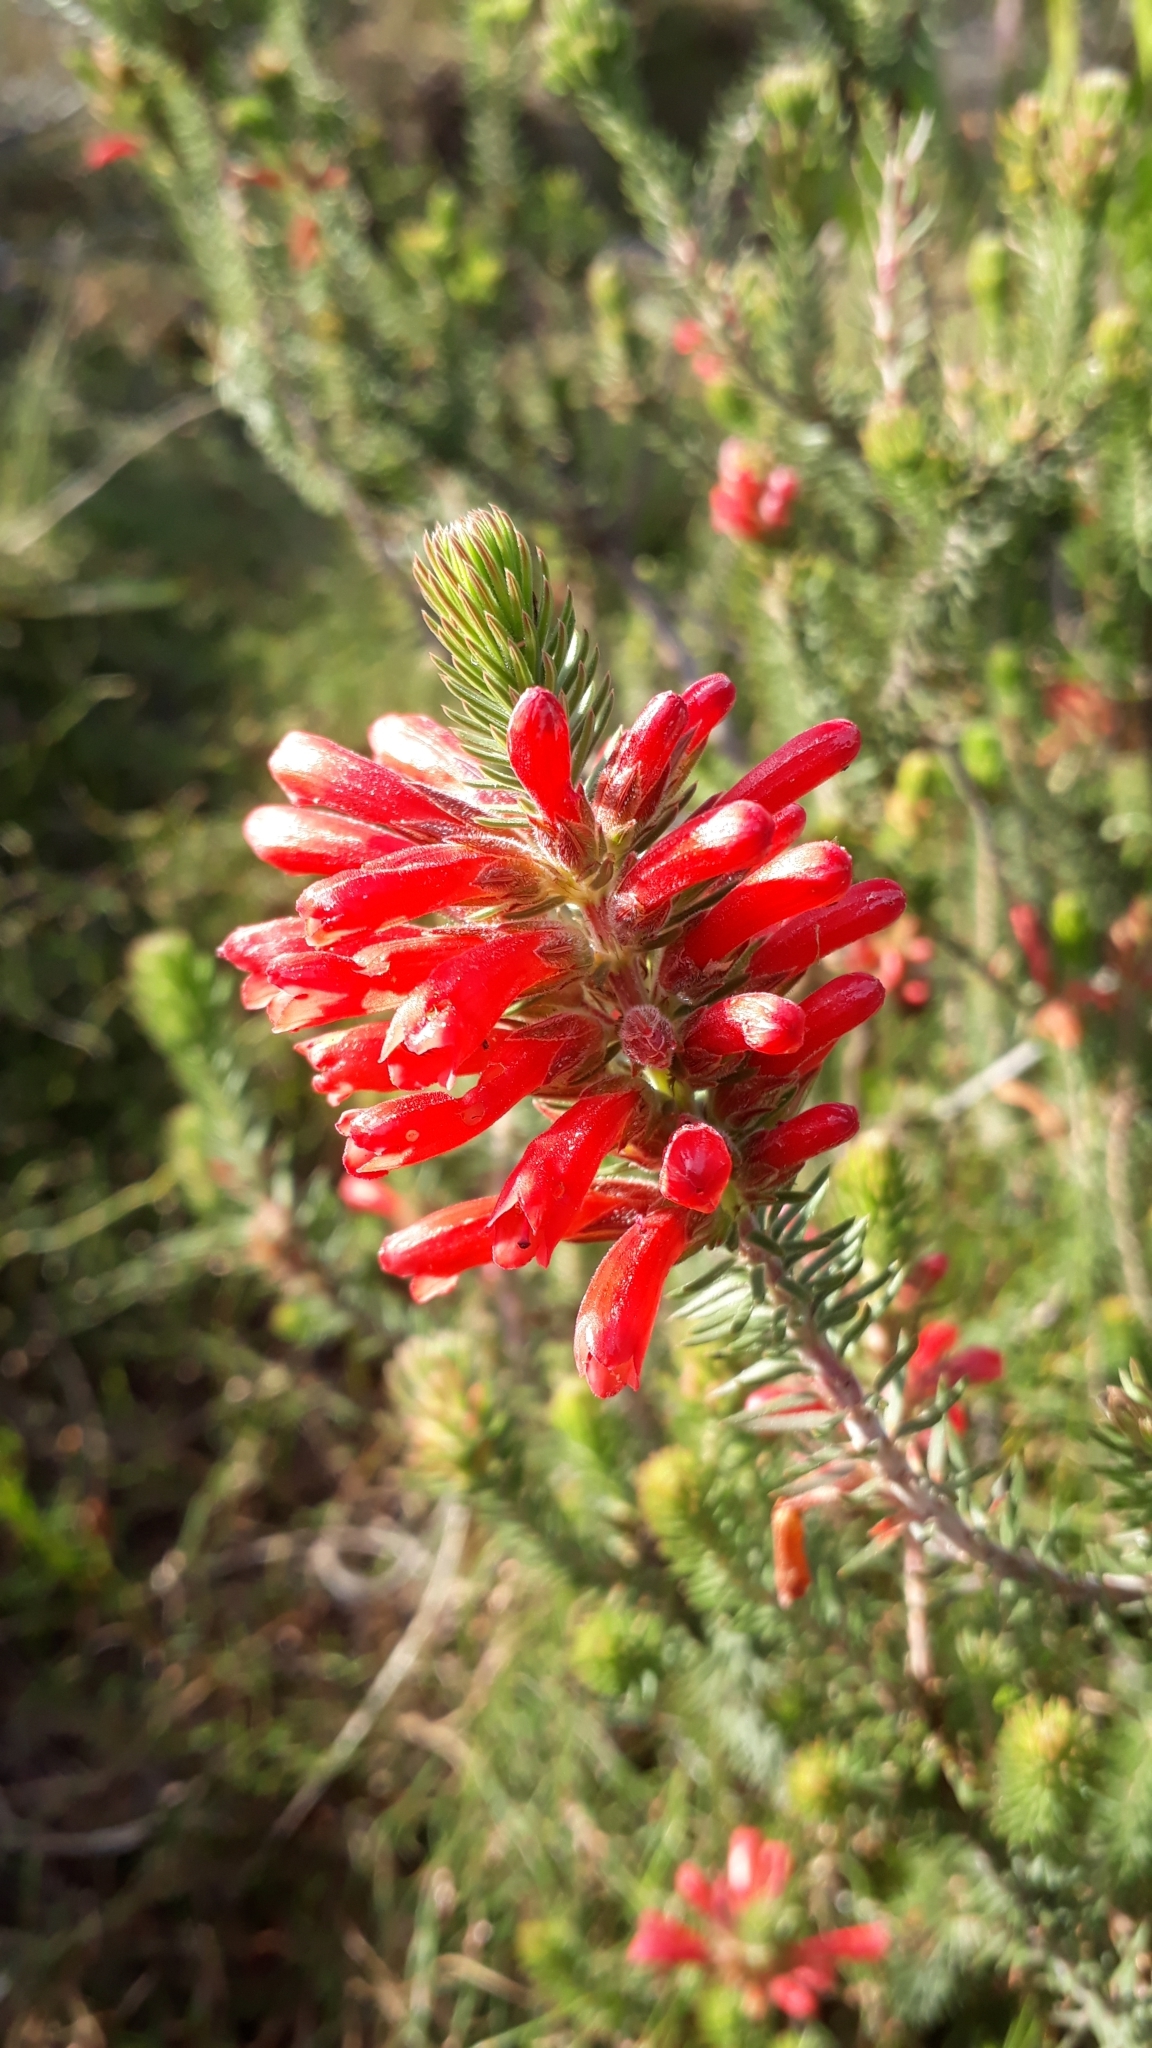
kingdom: Plantae
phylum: Tracheophyta
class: Magnoliopsida
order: Ericales
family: Ericaceae
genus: Erica
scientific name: Erica abietina
